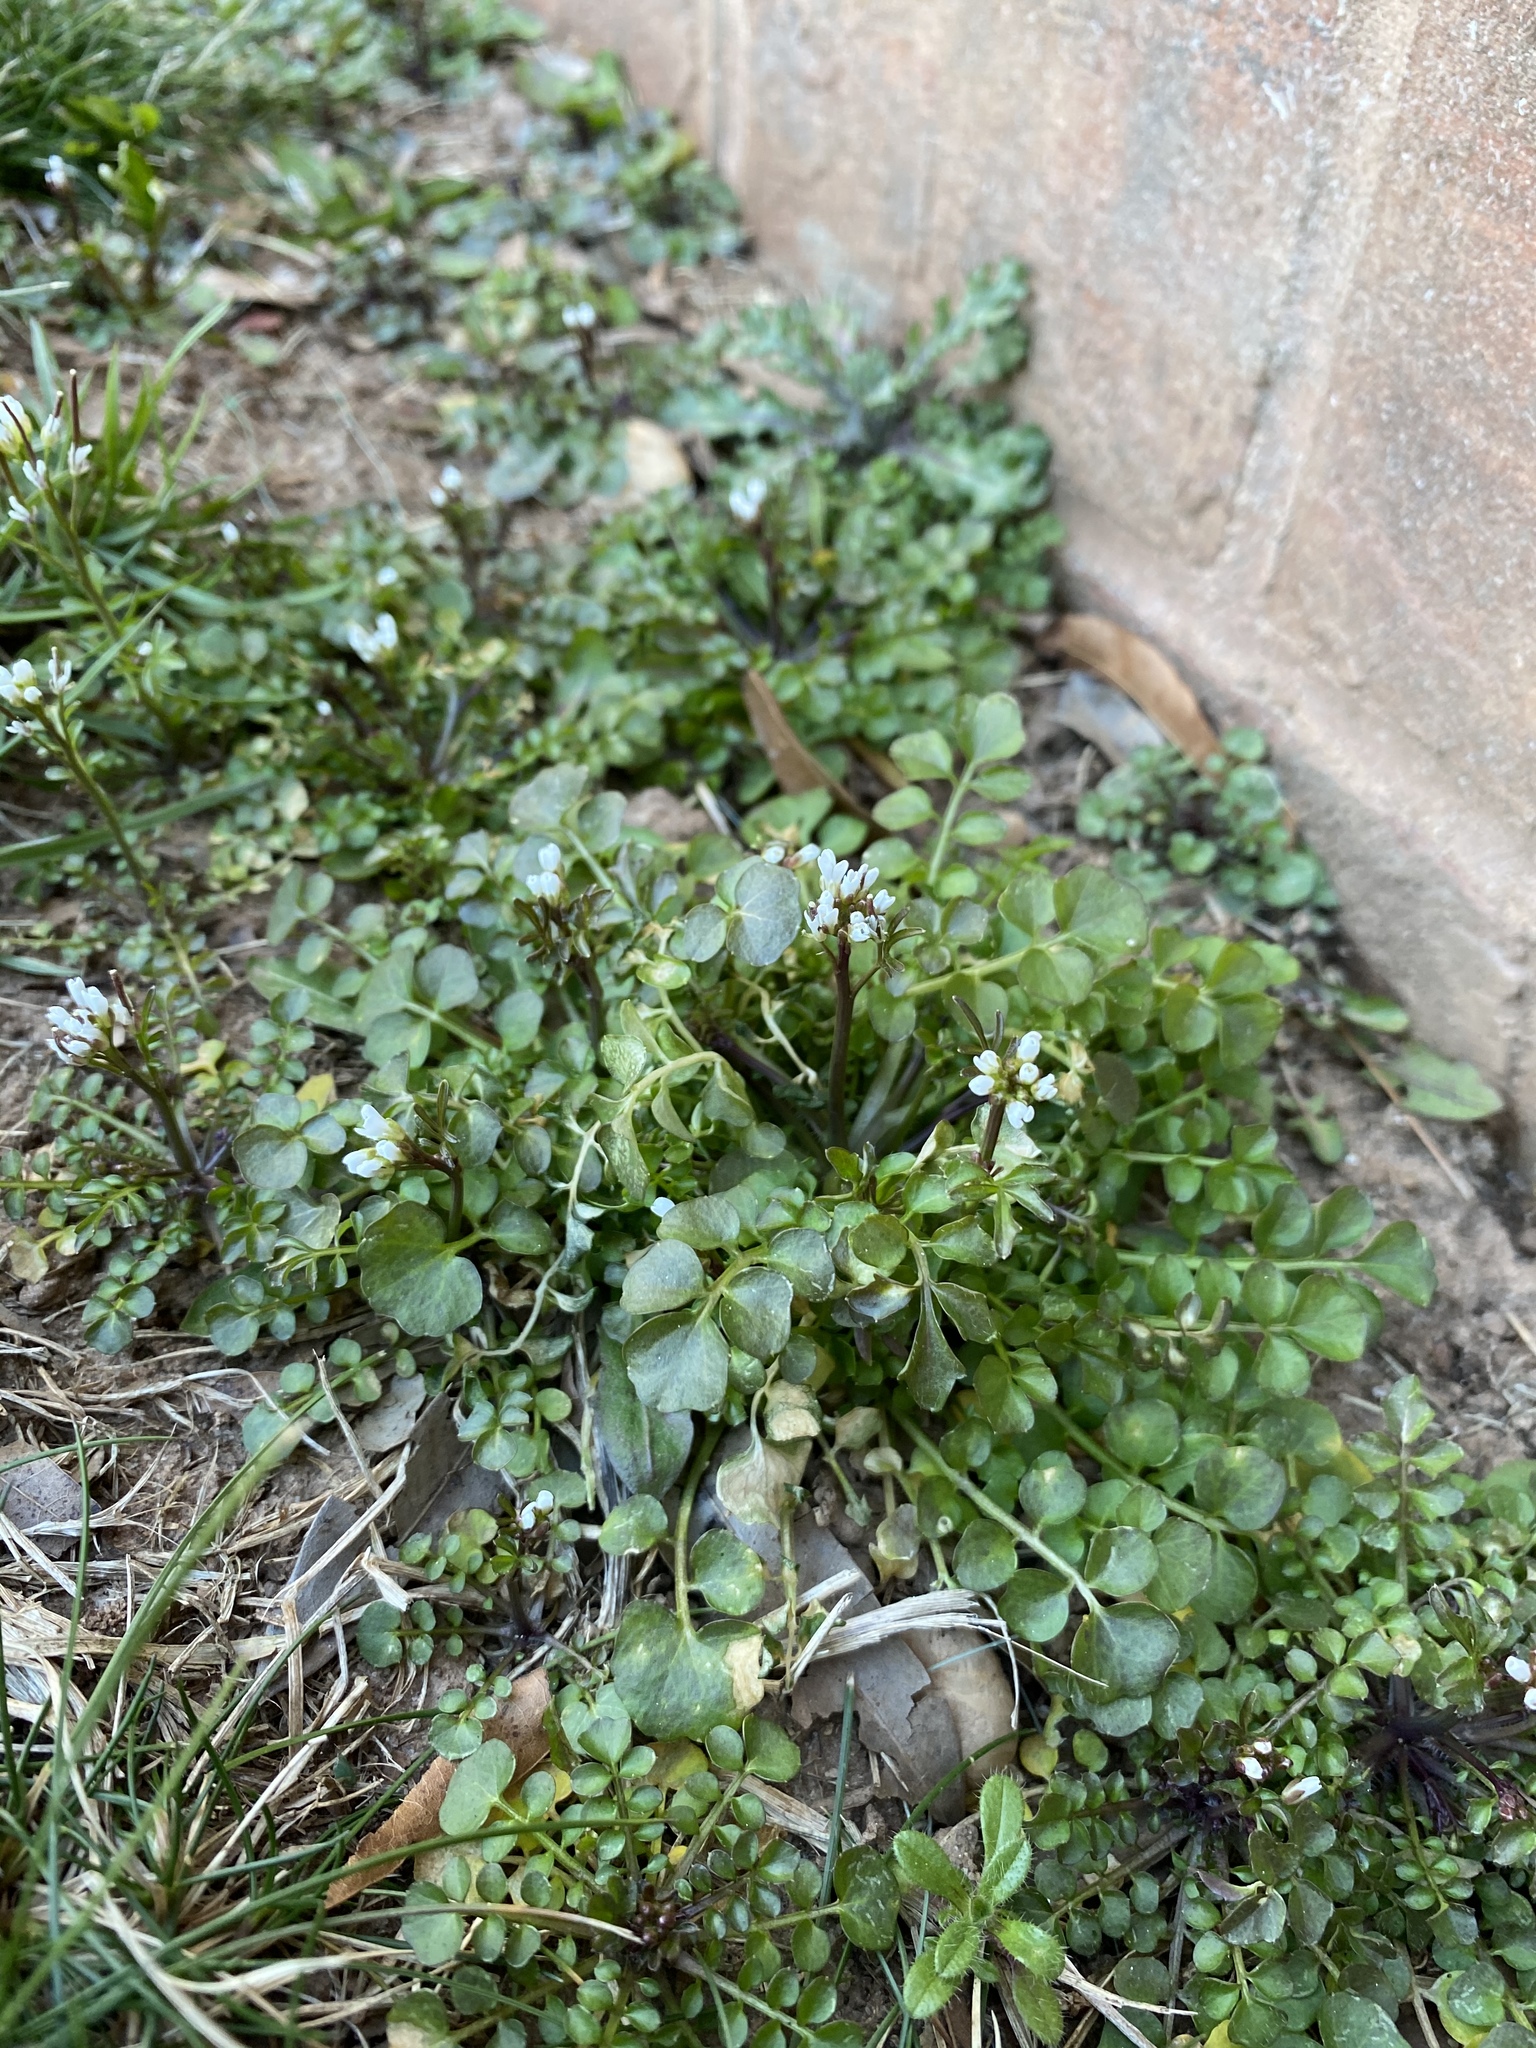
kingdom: Plantae
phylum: Tracheophyta
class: Magnoliopsida
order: Brassicales
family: Brassicaceae
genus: Cardamine
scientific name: Cardamine hirsuta
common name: Hairy bittercress
